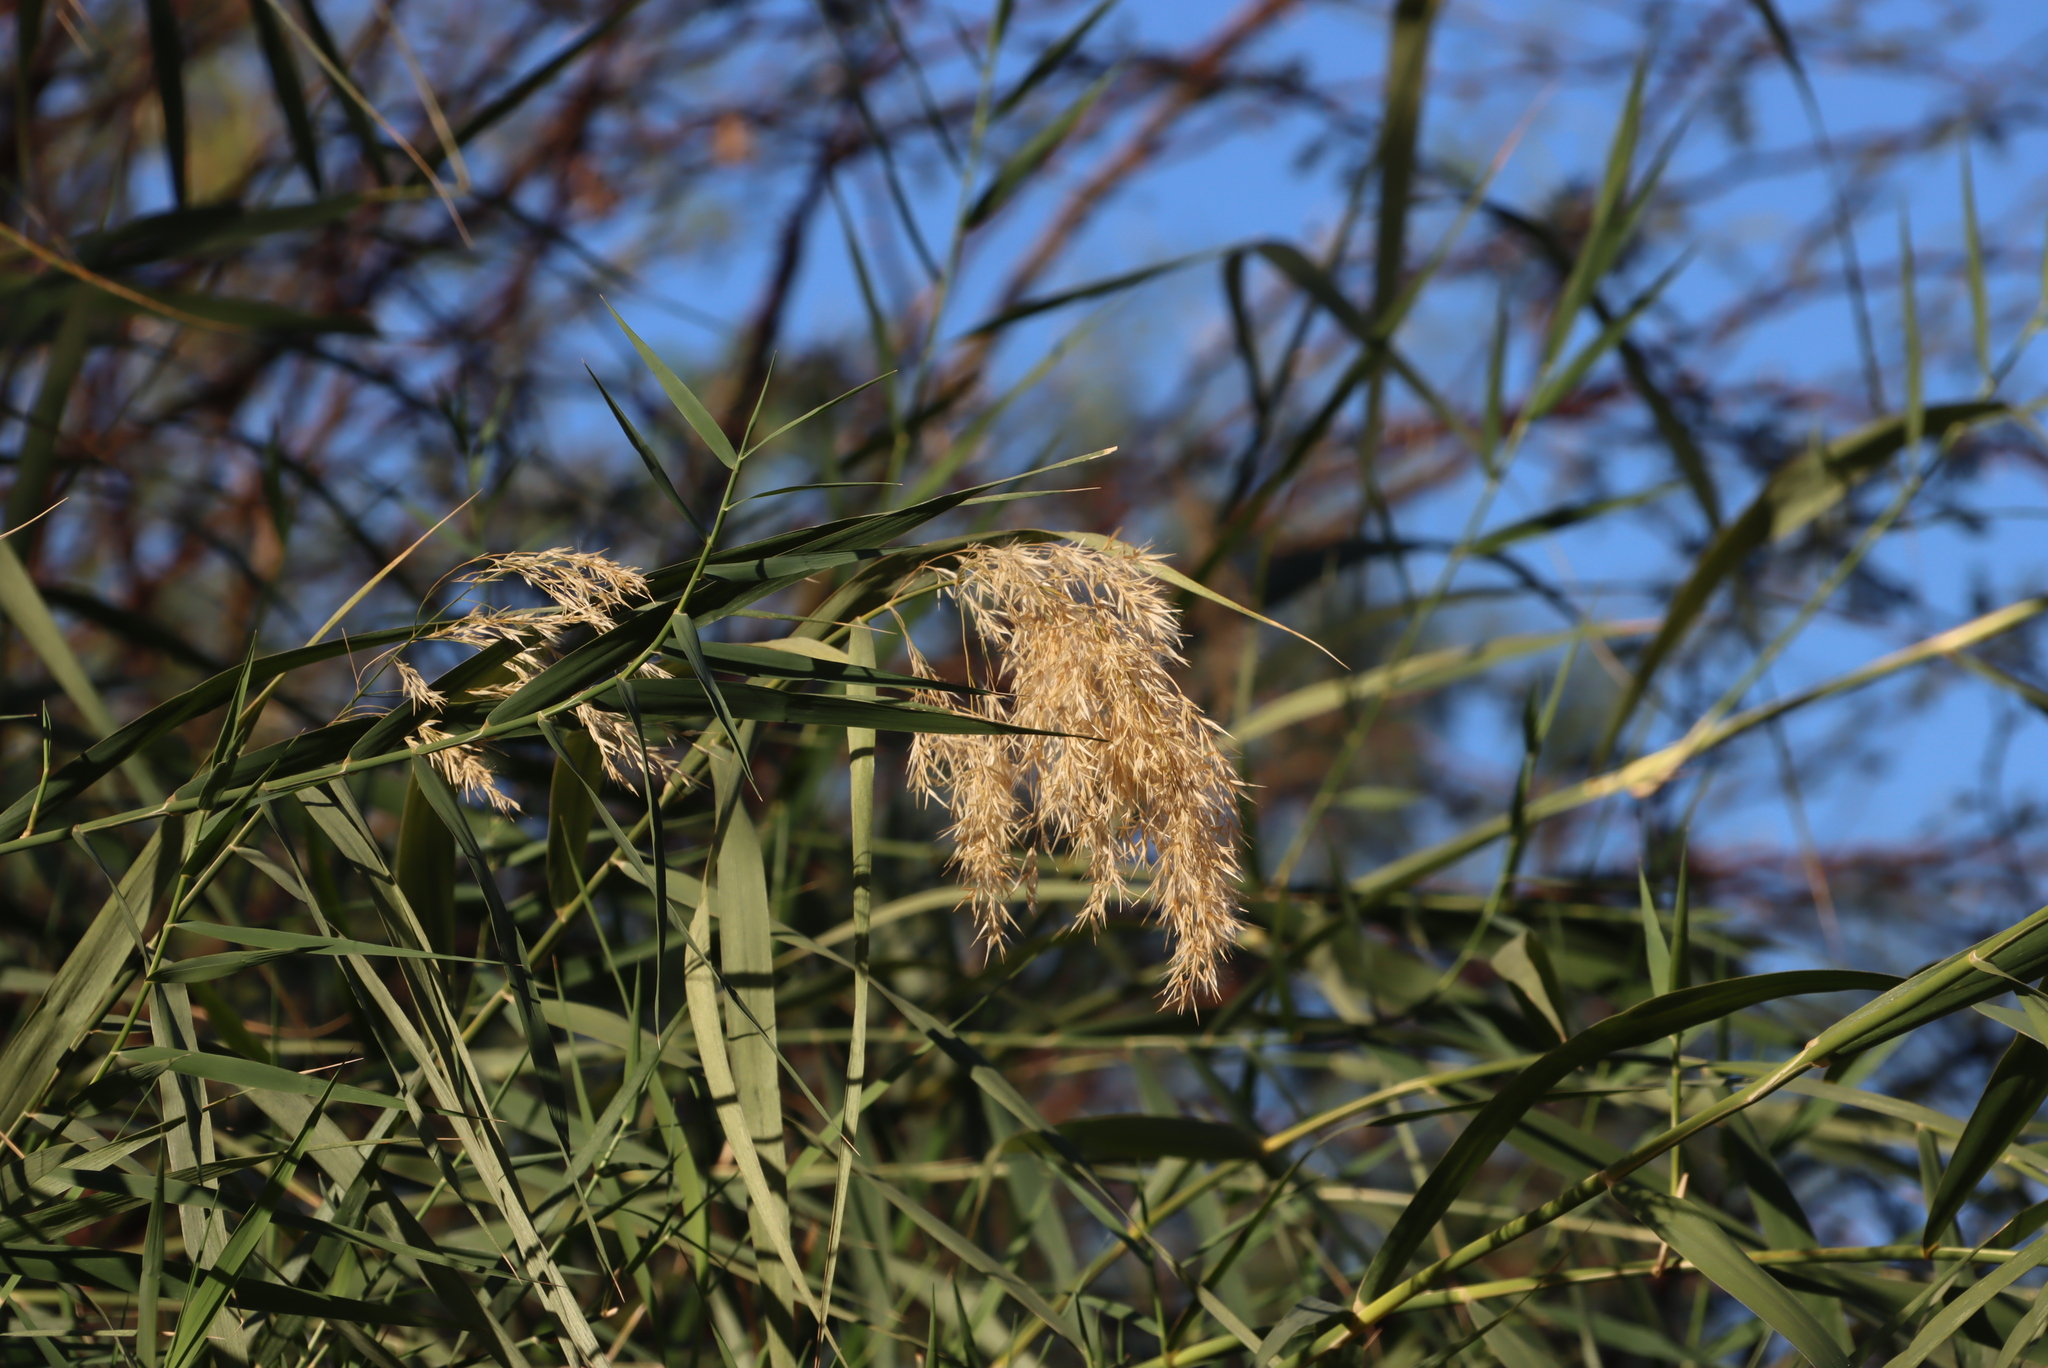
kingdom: Plantae
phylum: Tracheophyta
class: Liliopsida
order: Poales
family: Poaceae
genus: Phragmites
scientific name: Phragmites australis
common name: Common reed
